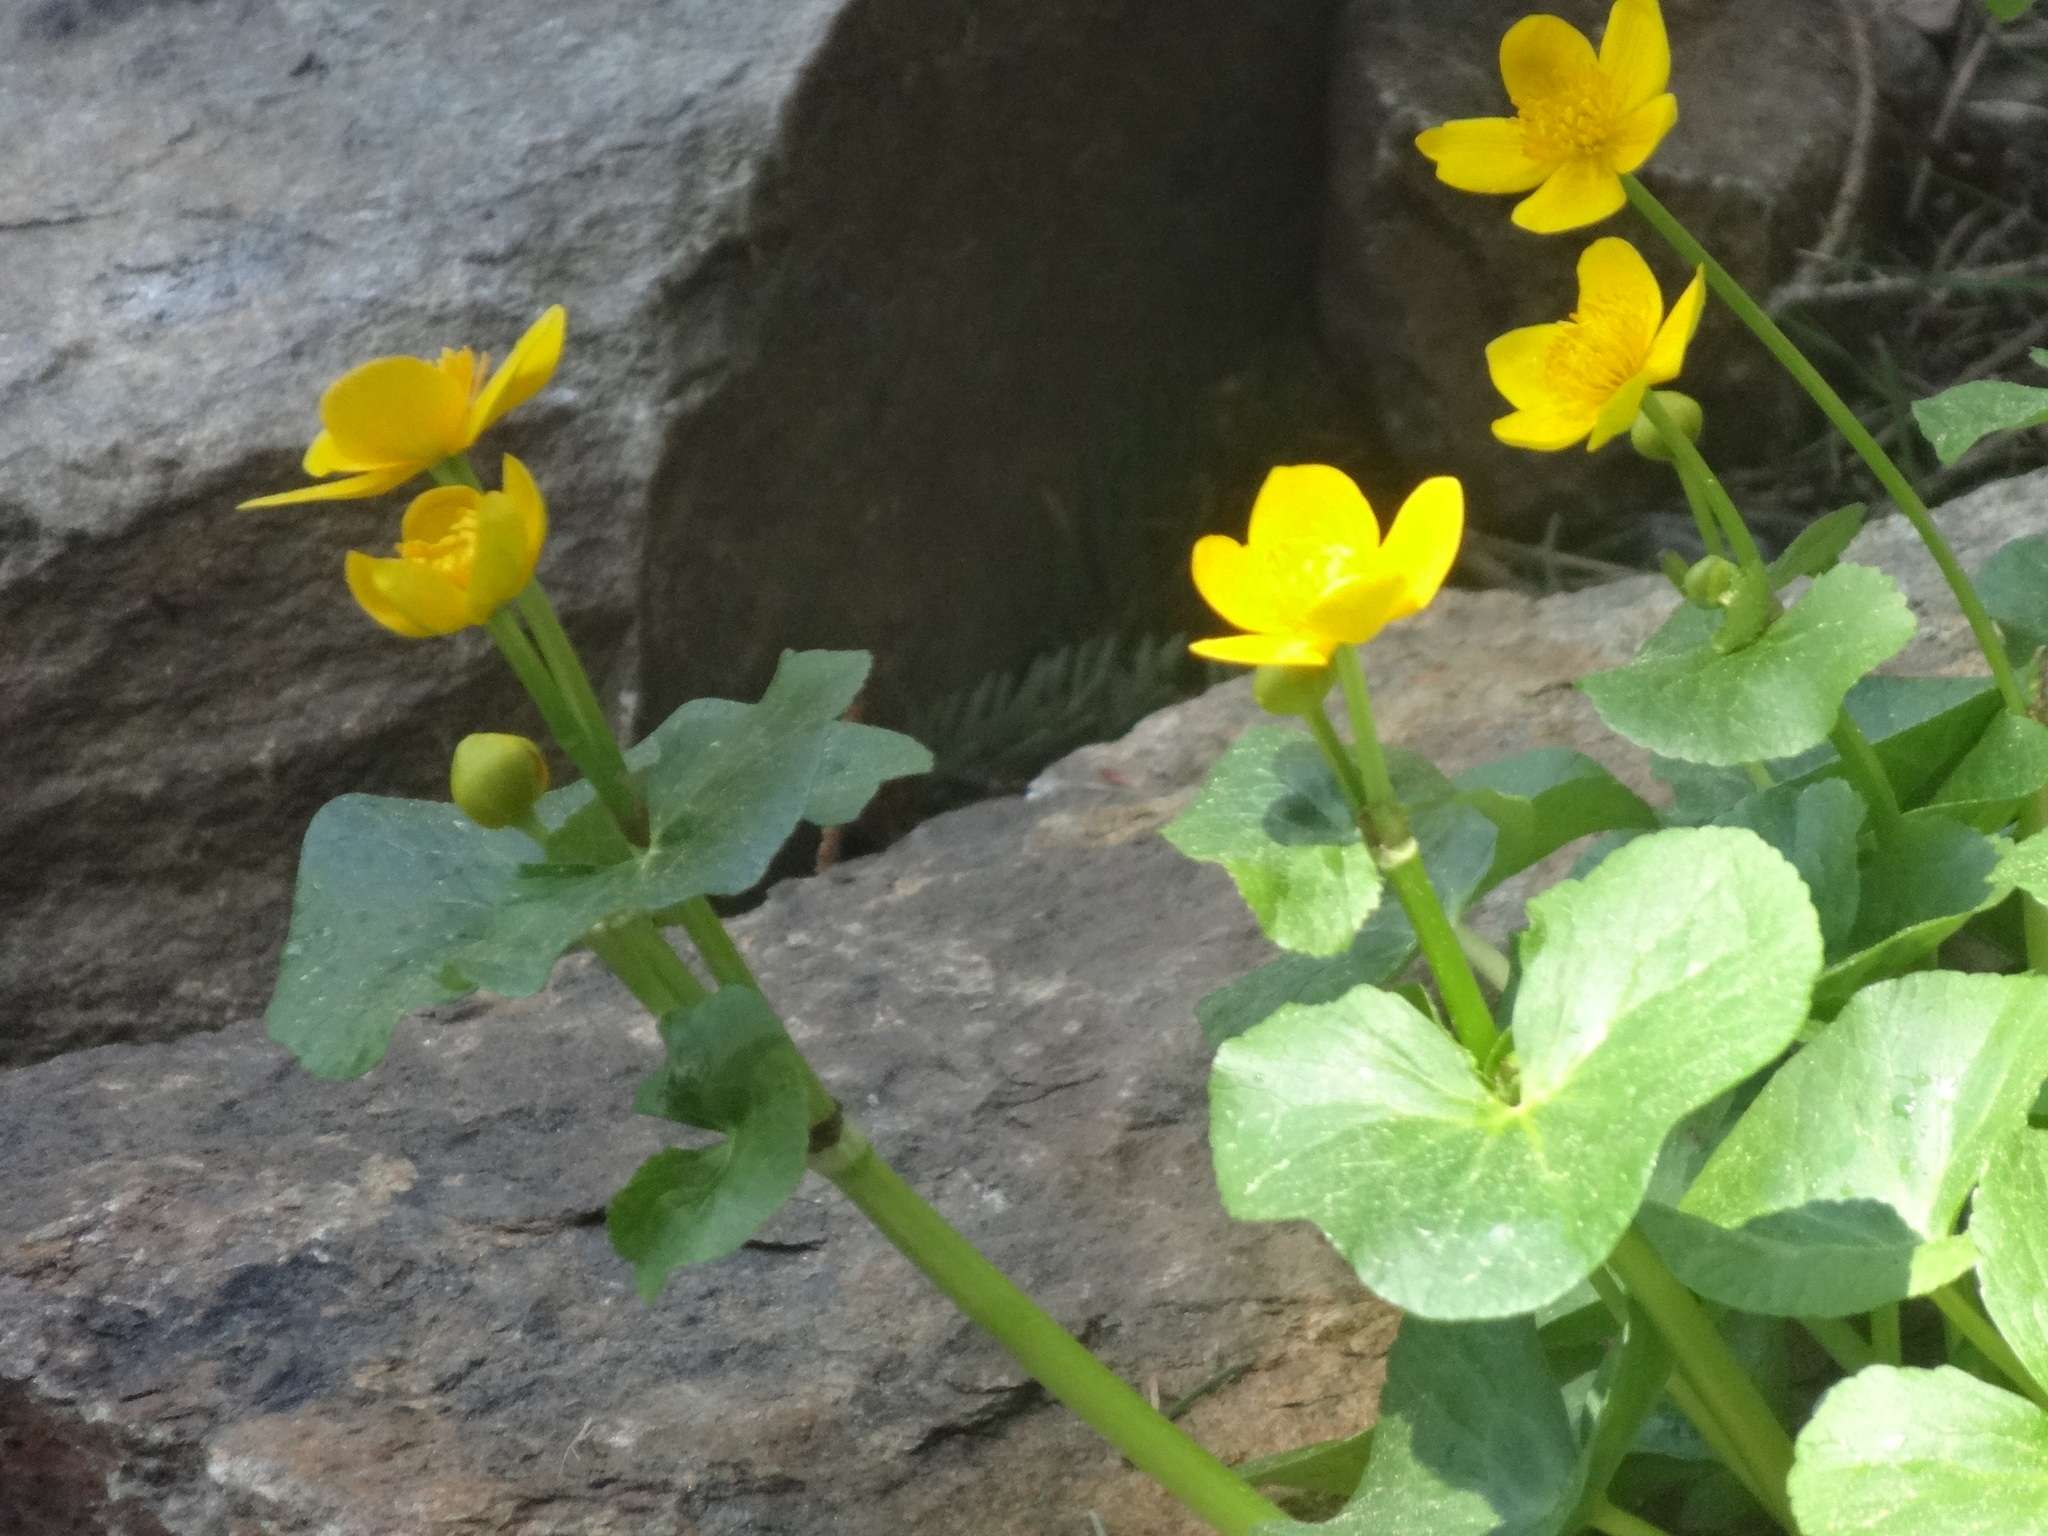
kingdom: Plantae
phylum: Tracheophyta
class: Magnoliopsida
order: Ranunculales
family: Ranunculaceae
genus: Caltha
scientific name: Caltha palustris
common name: Marsh marigold
